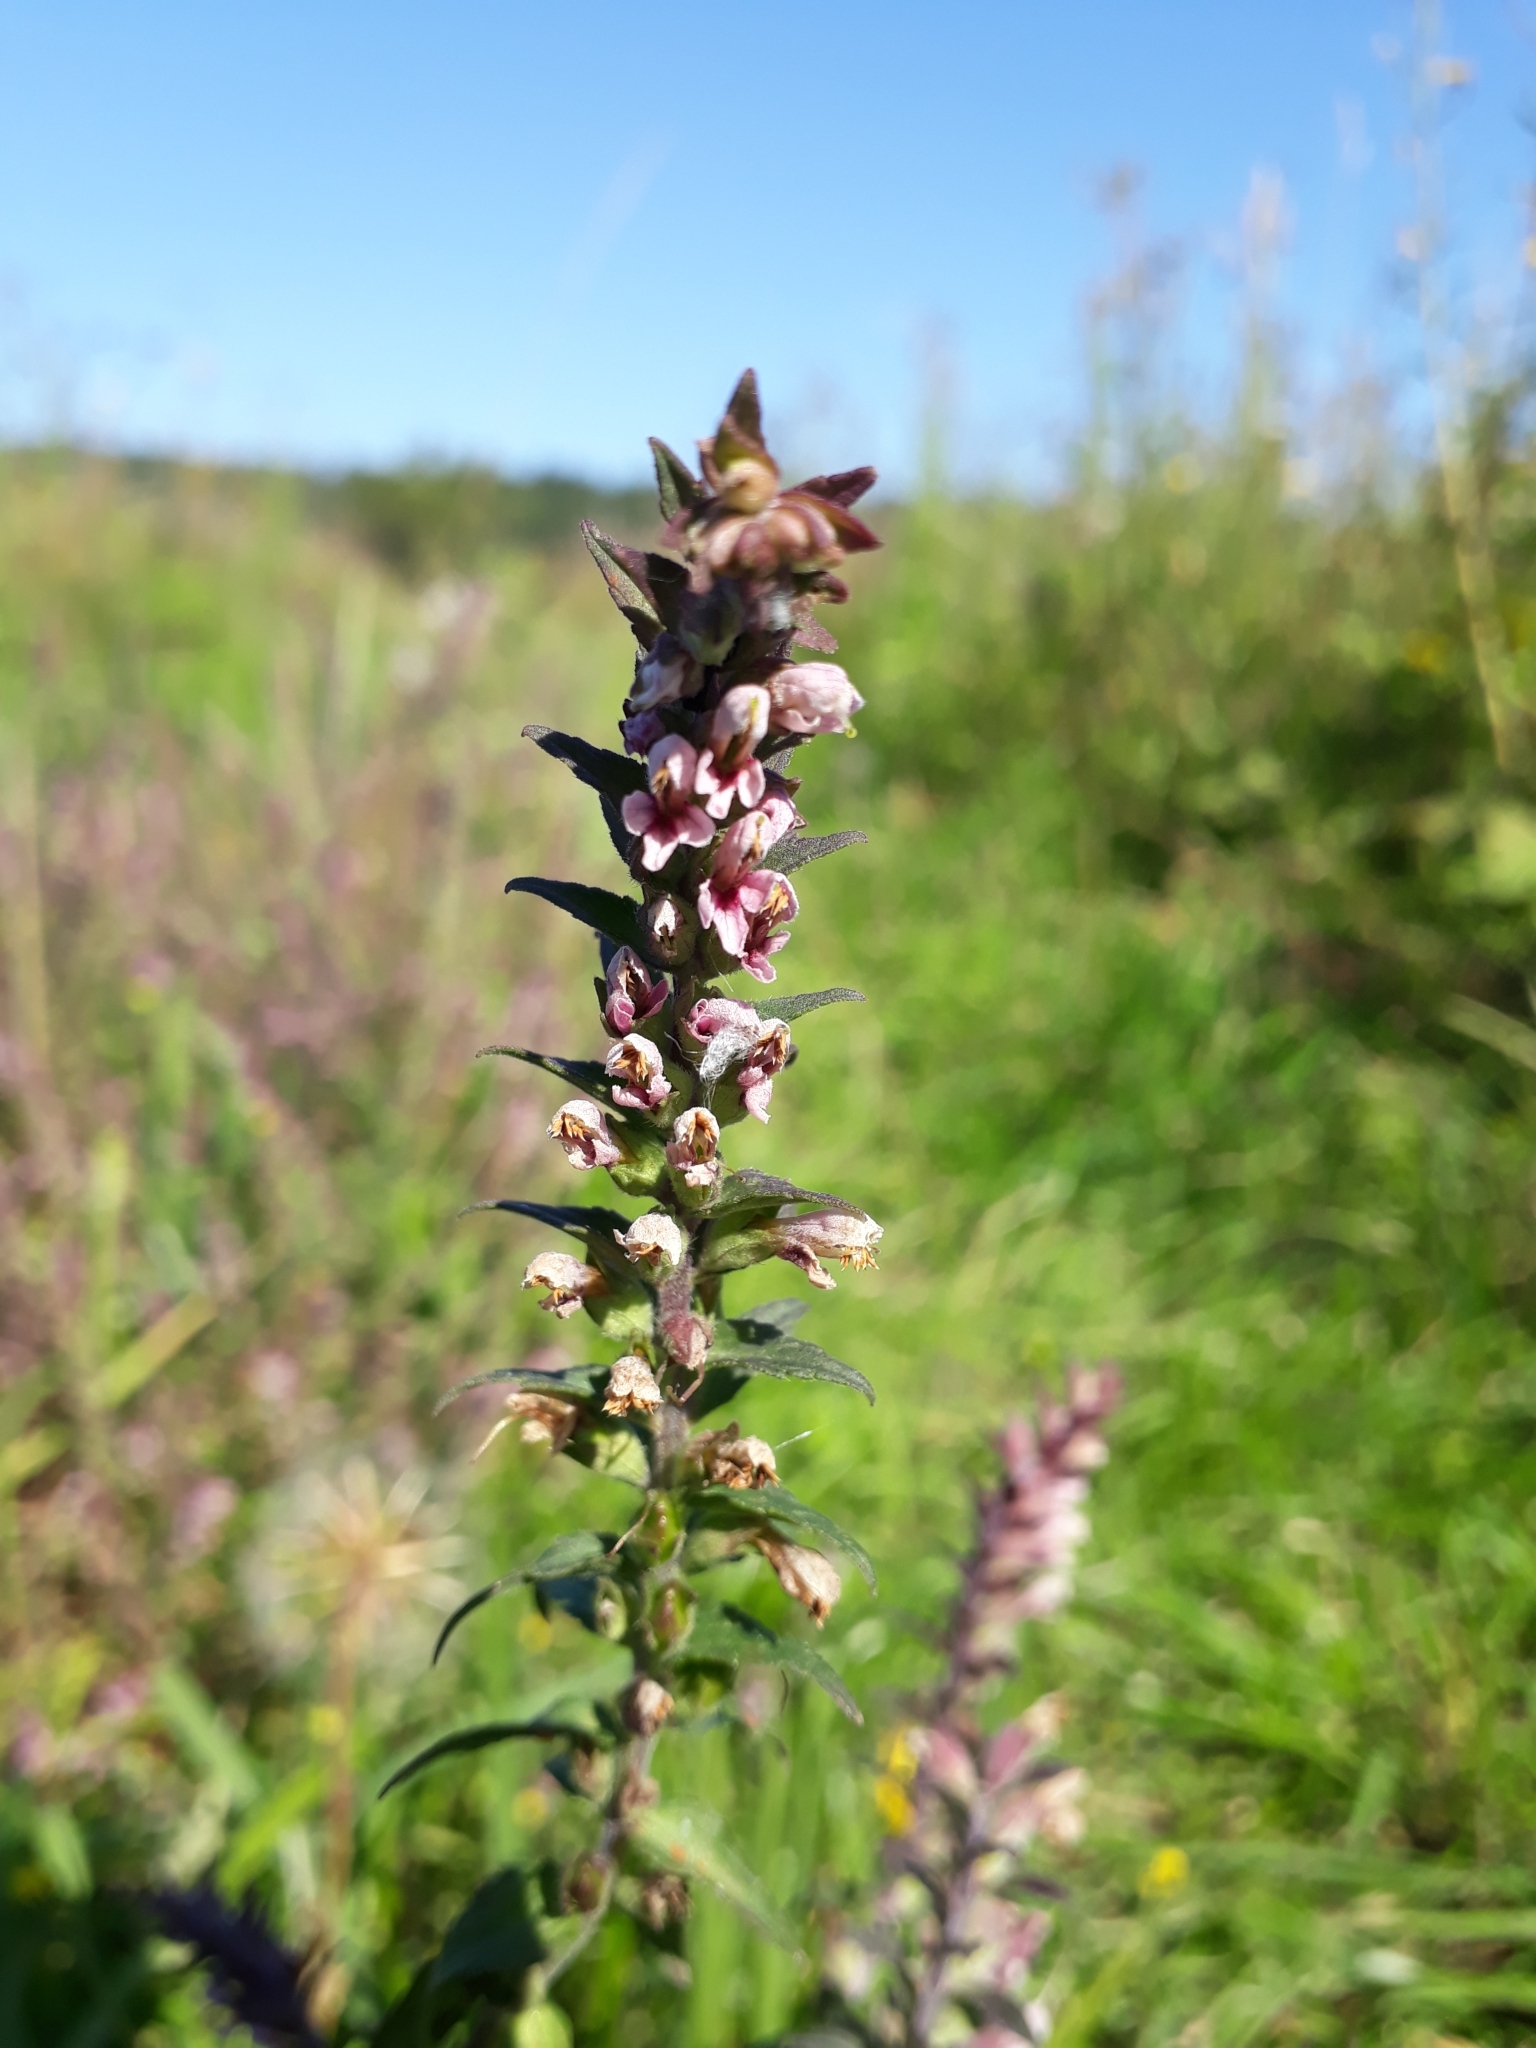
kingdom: Plantae
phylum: Tracheophyta
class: Magnoliopsida
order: Lamiales
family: Orobanchaceae
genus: Odontites
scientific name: Odontites vulgaris
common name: Broomrape
